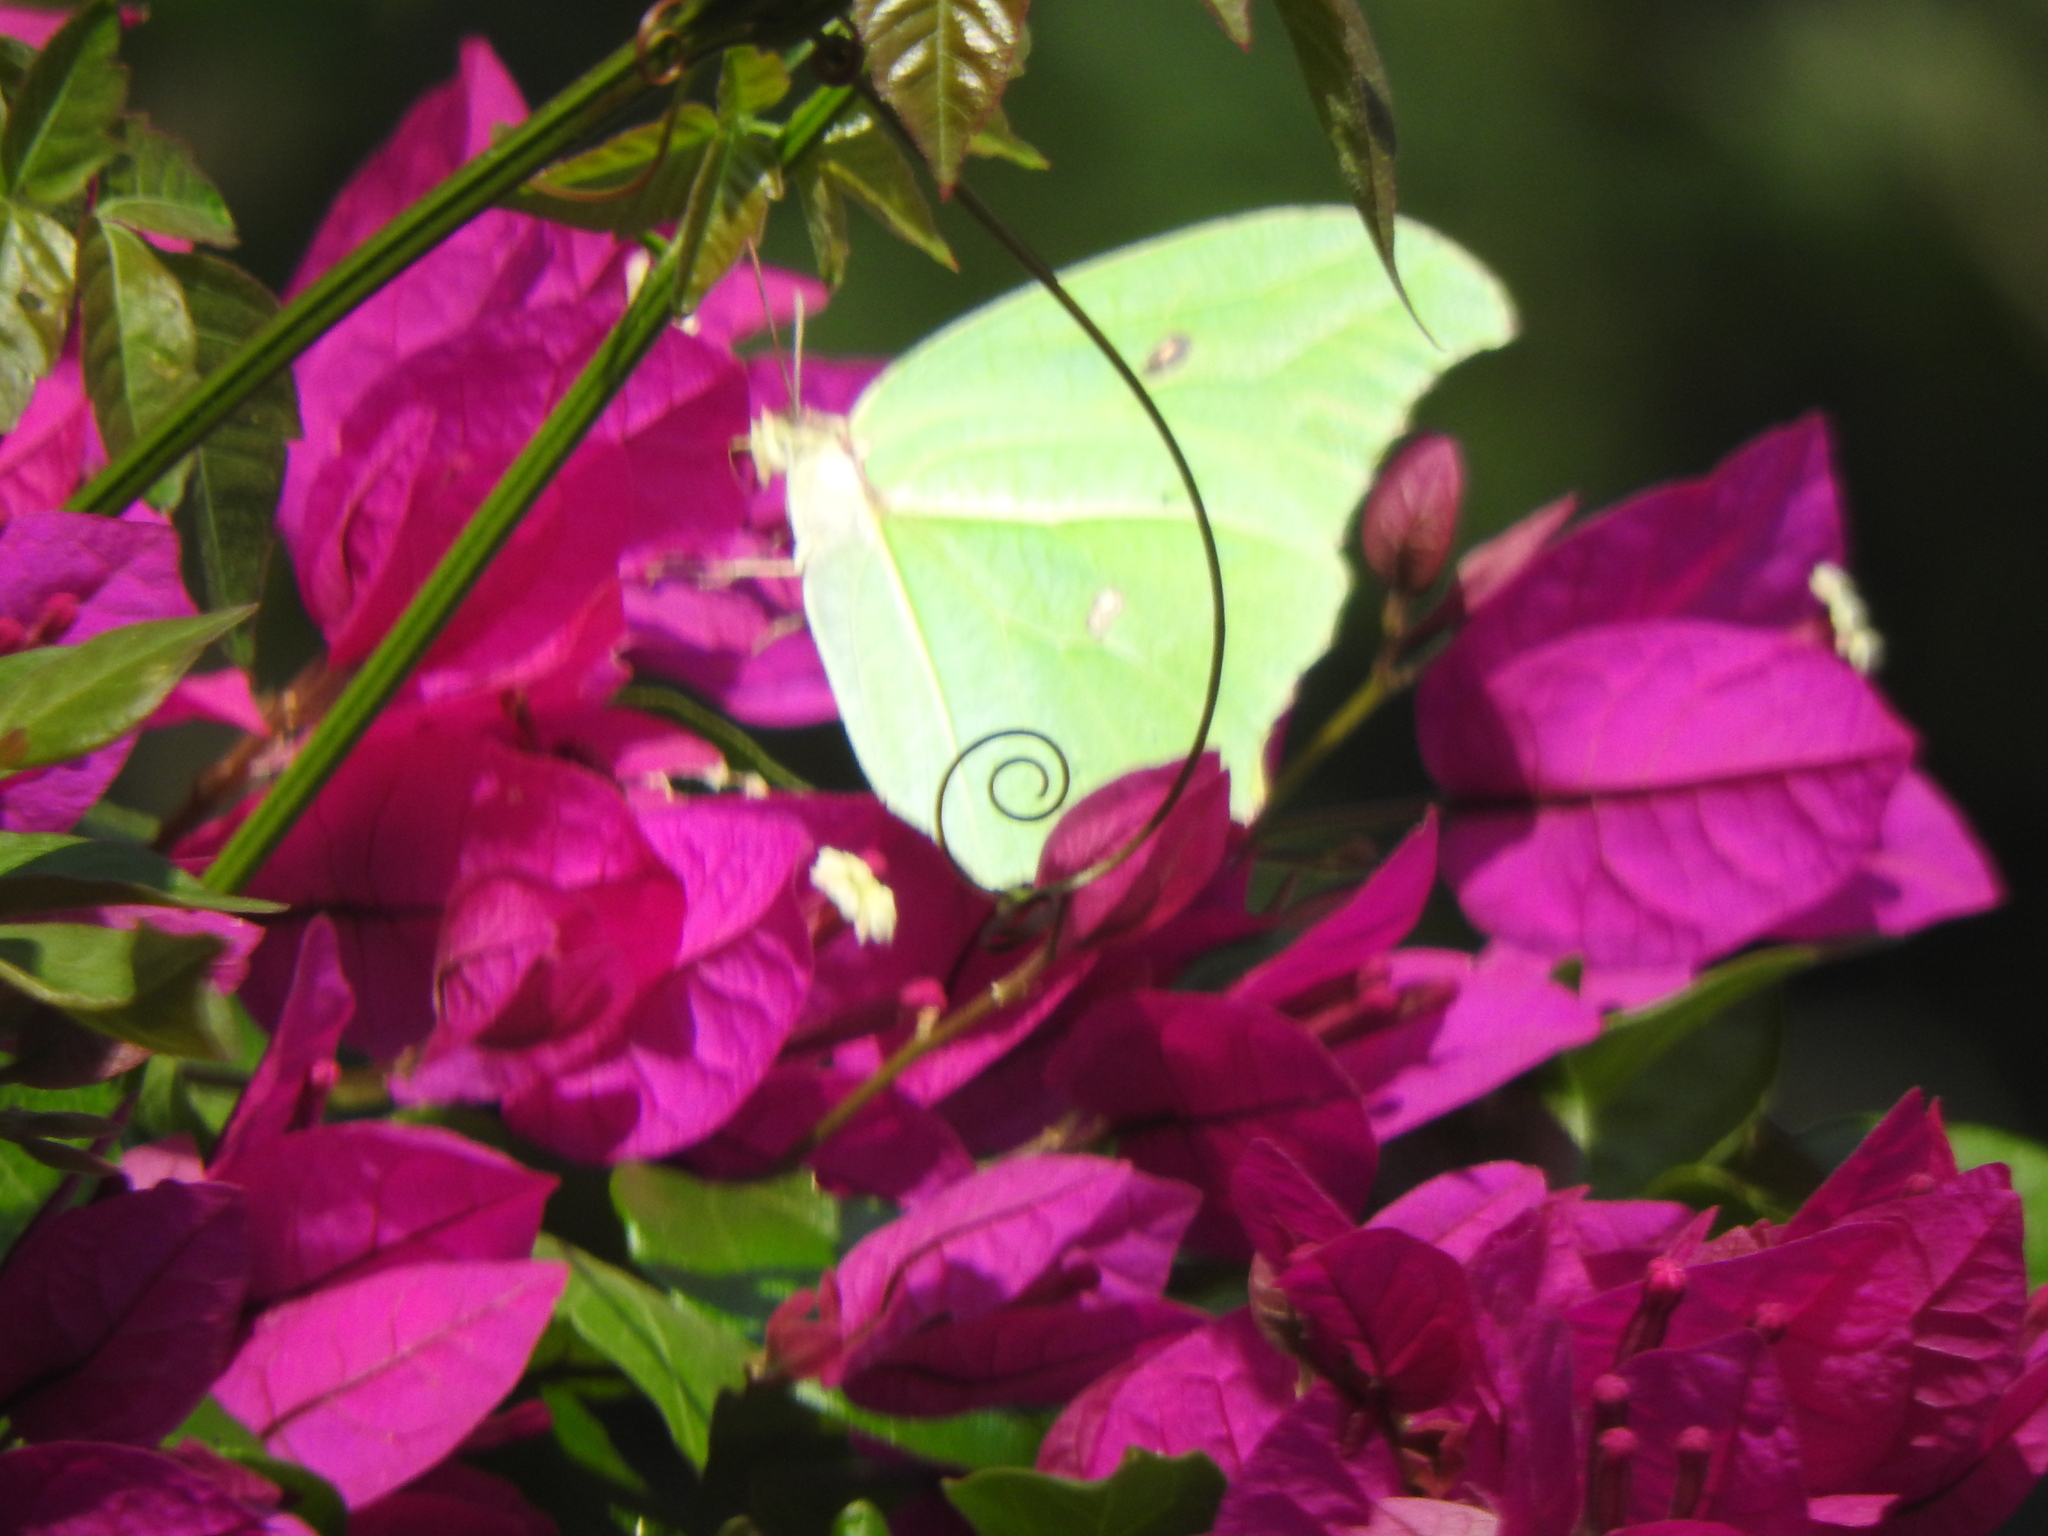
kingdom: Animalia
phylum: Arthropoda
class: Insecta
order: Lepidoptera
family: Pieridae
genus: Anteos
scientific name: Anteos maerula
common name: Angled sulphur
